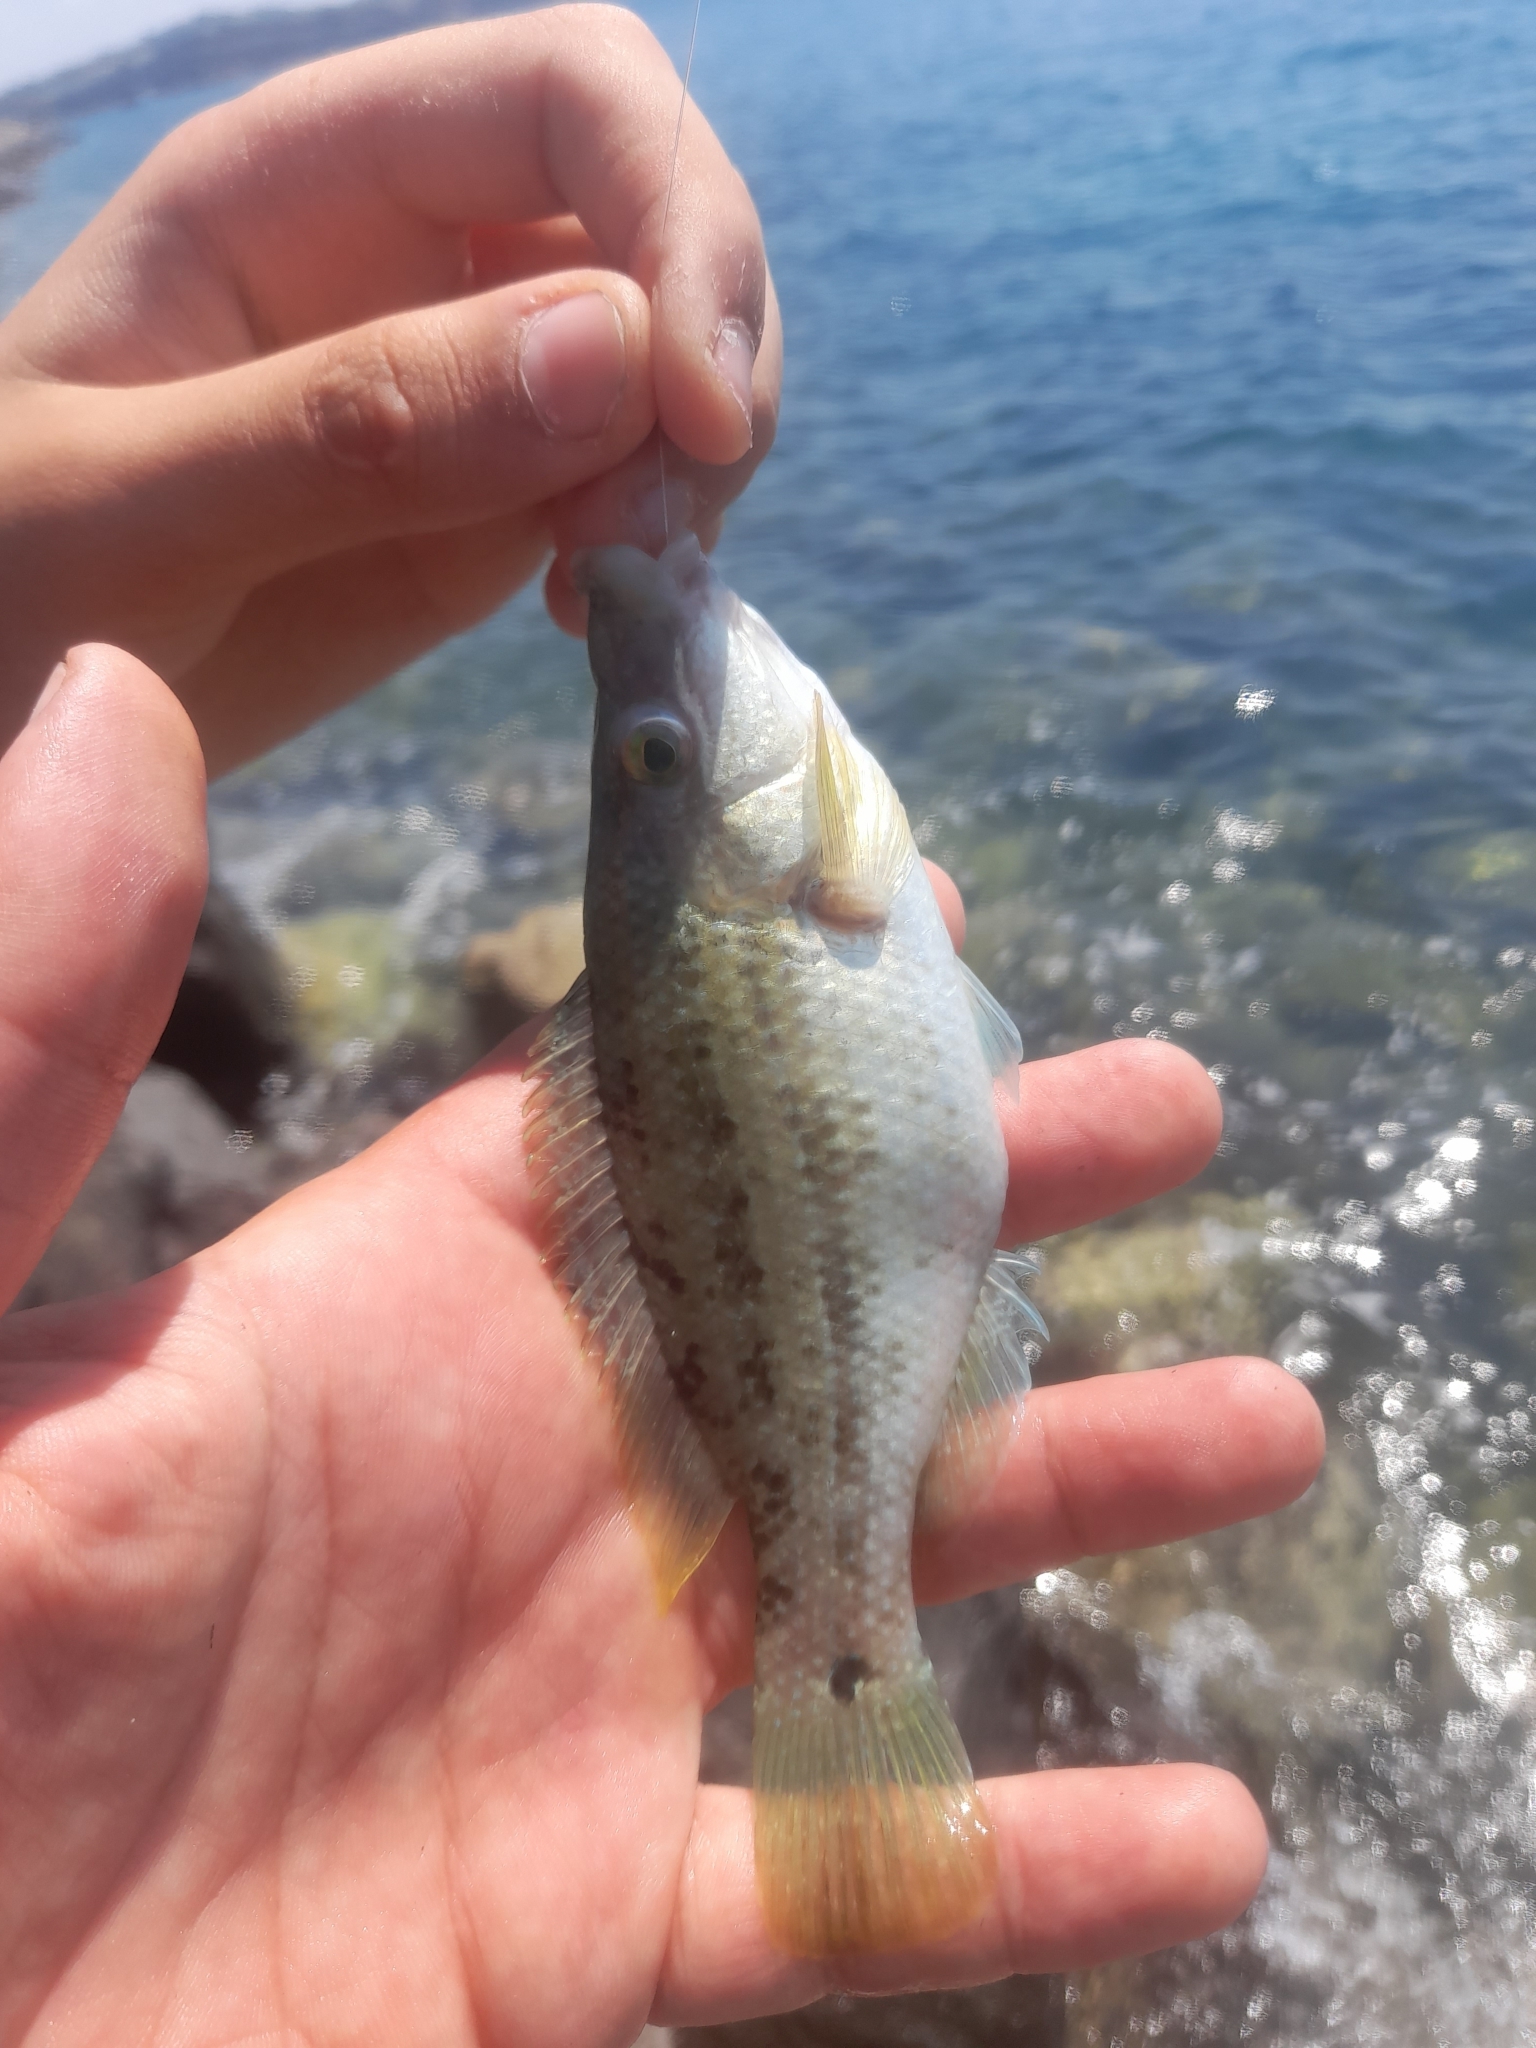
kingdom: Animalia
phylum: Chordata
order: Perciformes
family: Labridae
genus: Symphodus
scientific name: Symphodus tinca
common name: Peacock wrasse
